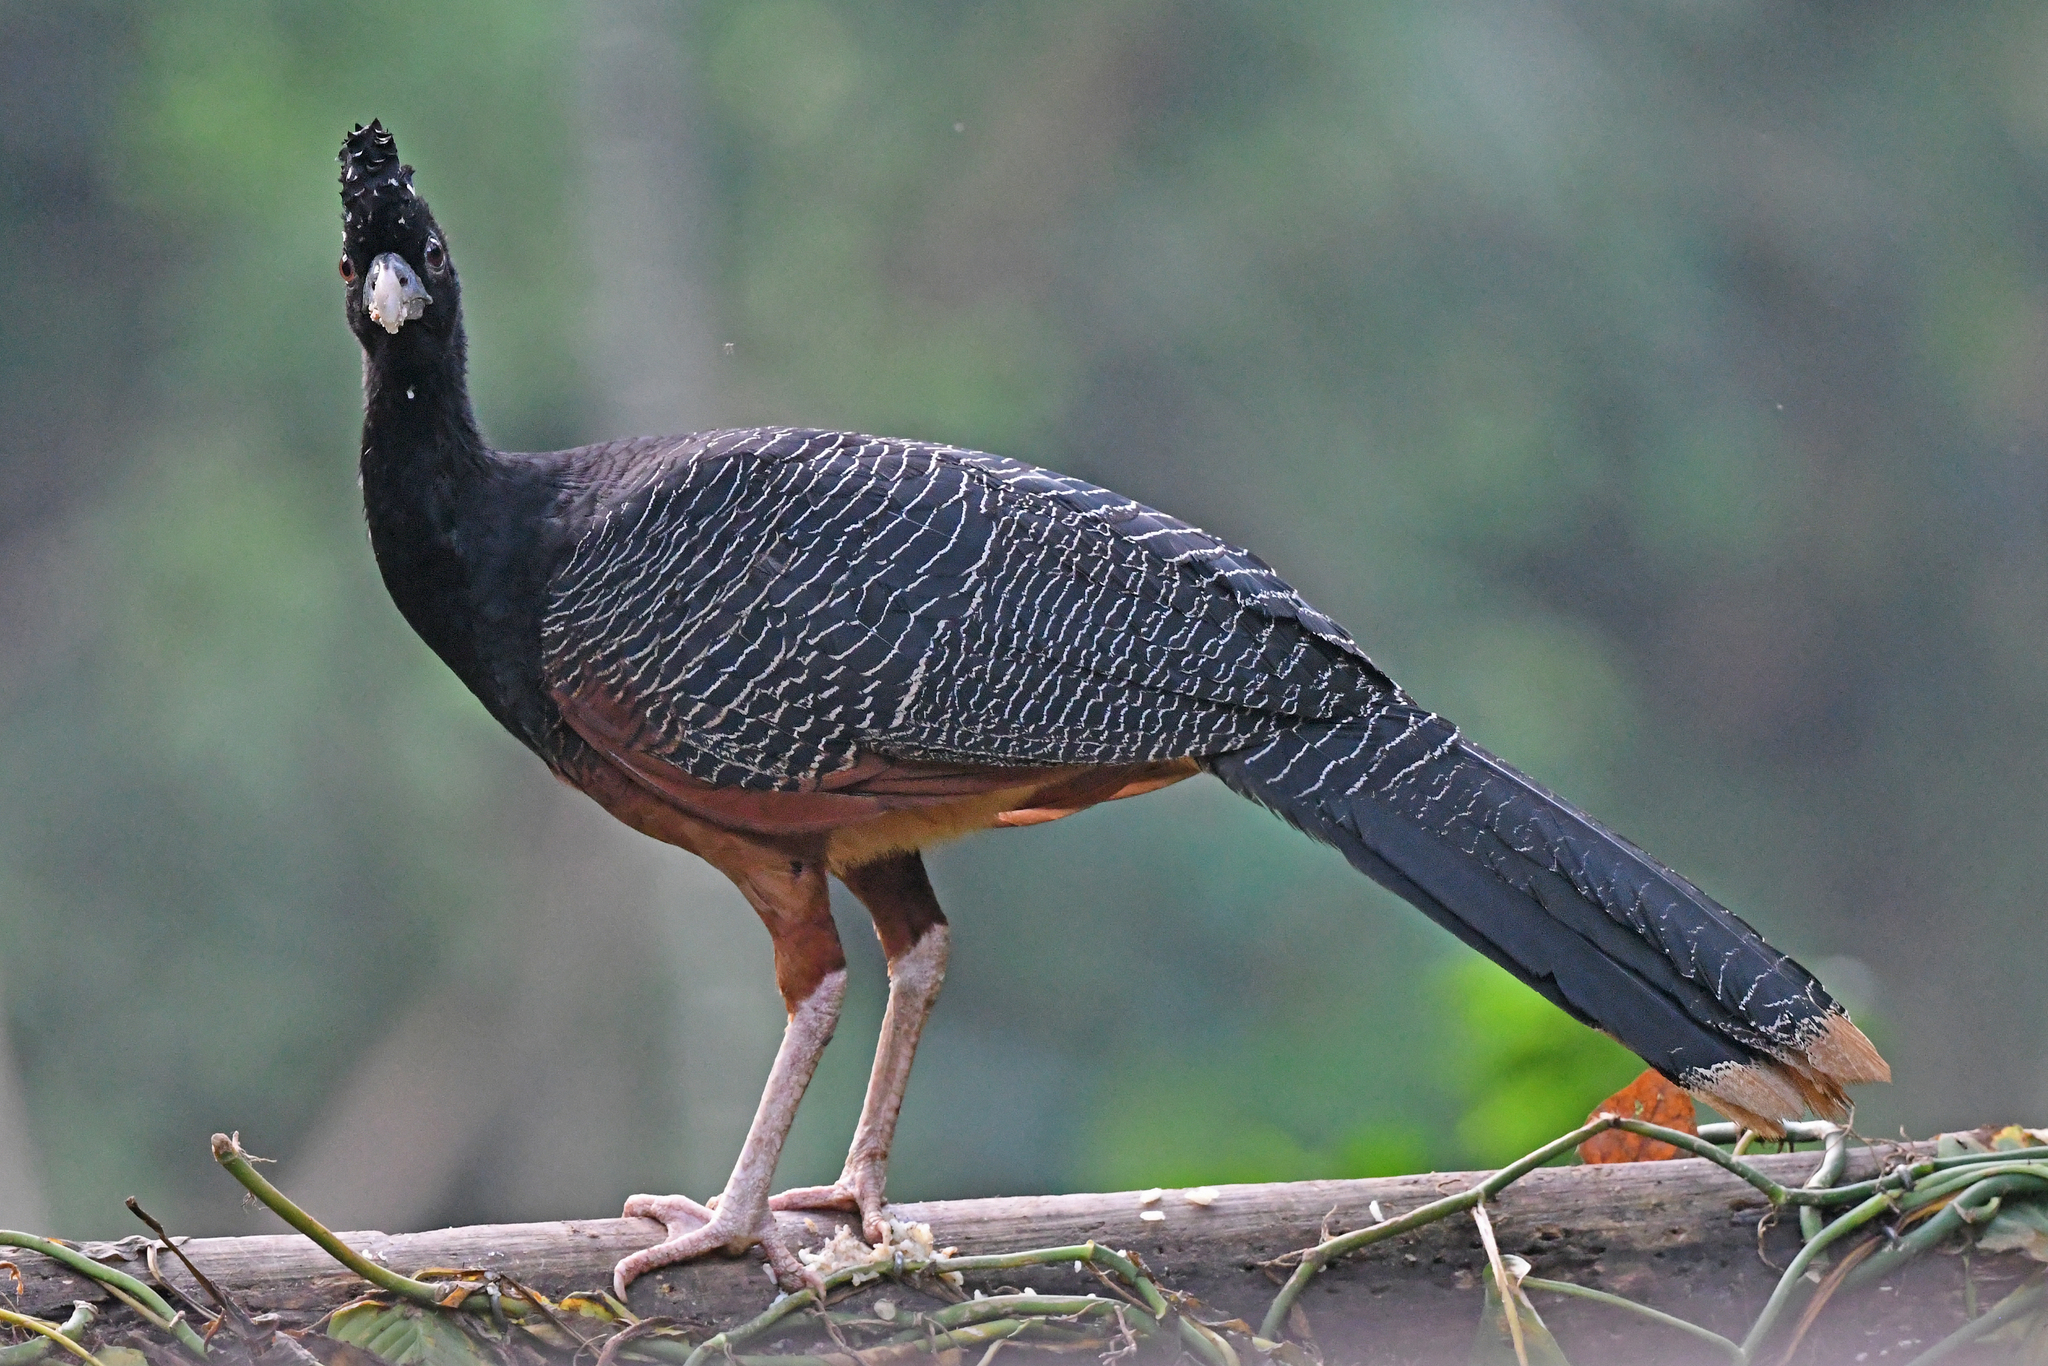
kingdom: Animalia
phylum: Chordata
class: Aves
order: Galliformes
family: Cracidae
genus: Crax
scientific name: Crax alberti
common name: Blue-billed curassow
